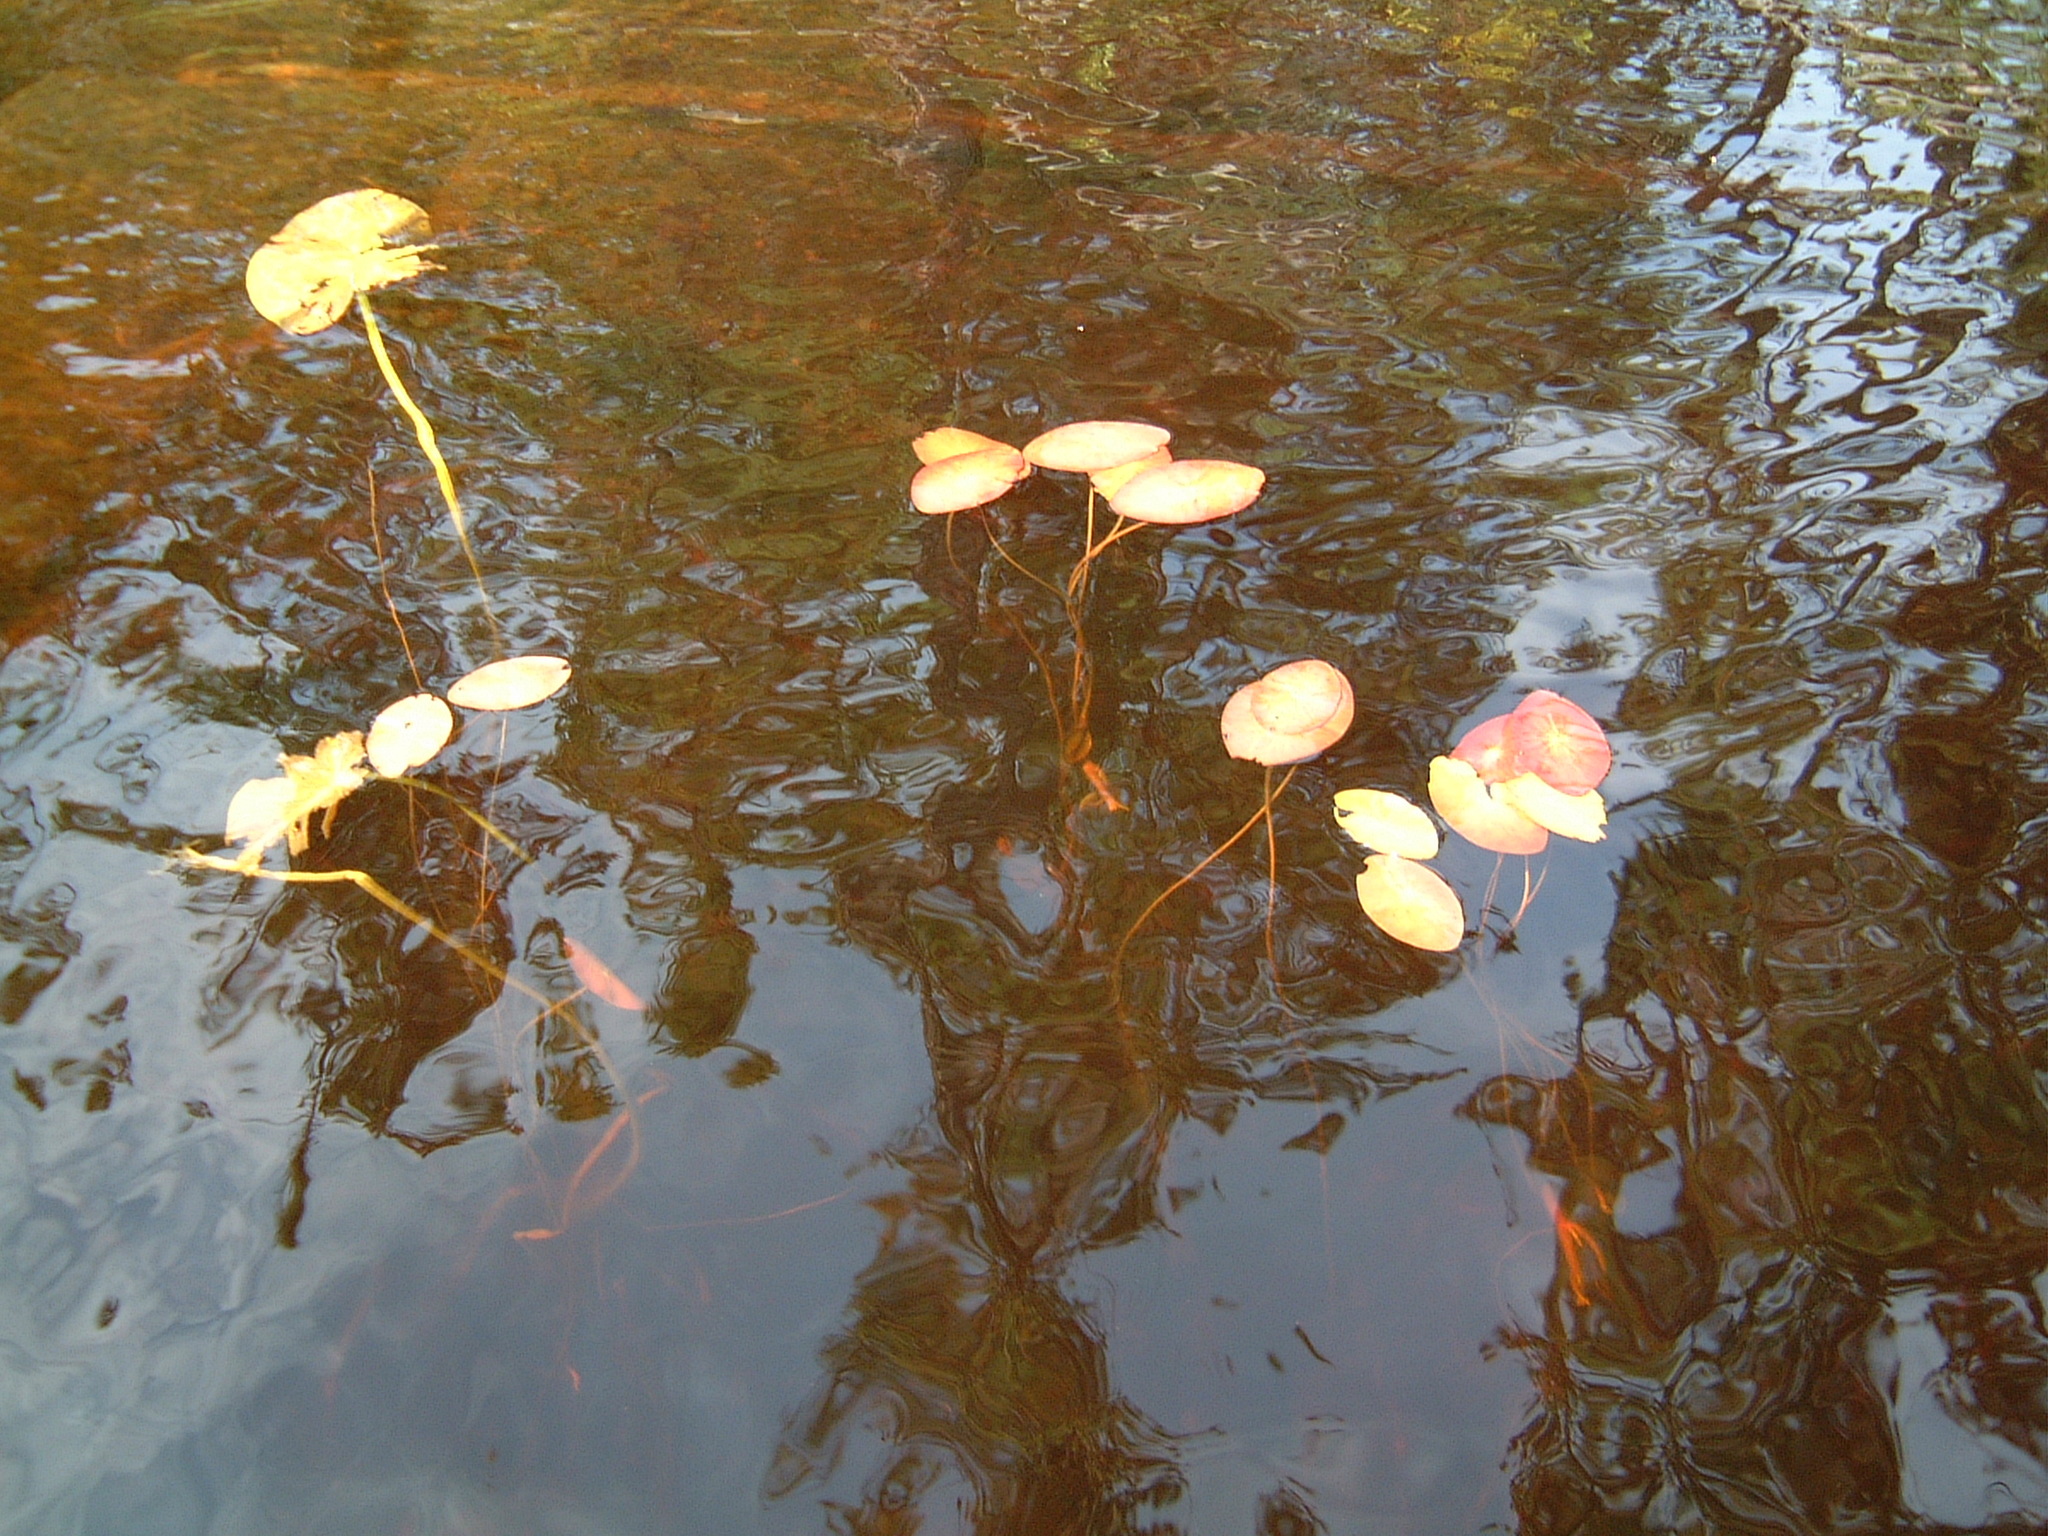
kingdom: Plantae
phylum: Tracheophyta
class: Magnoliopsida
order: Nymphaeales
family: Cabombaceae
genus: Brasenia
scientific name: Brasenia schreberi
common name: Water-shield
